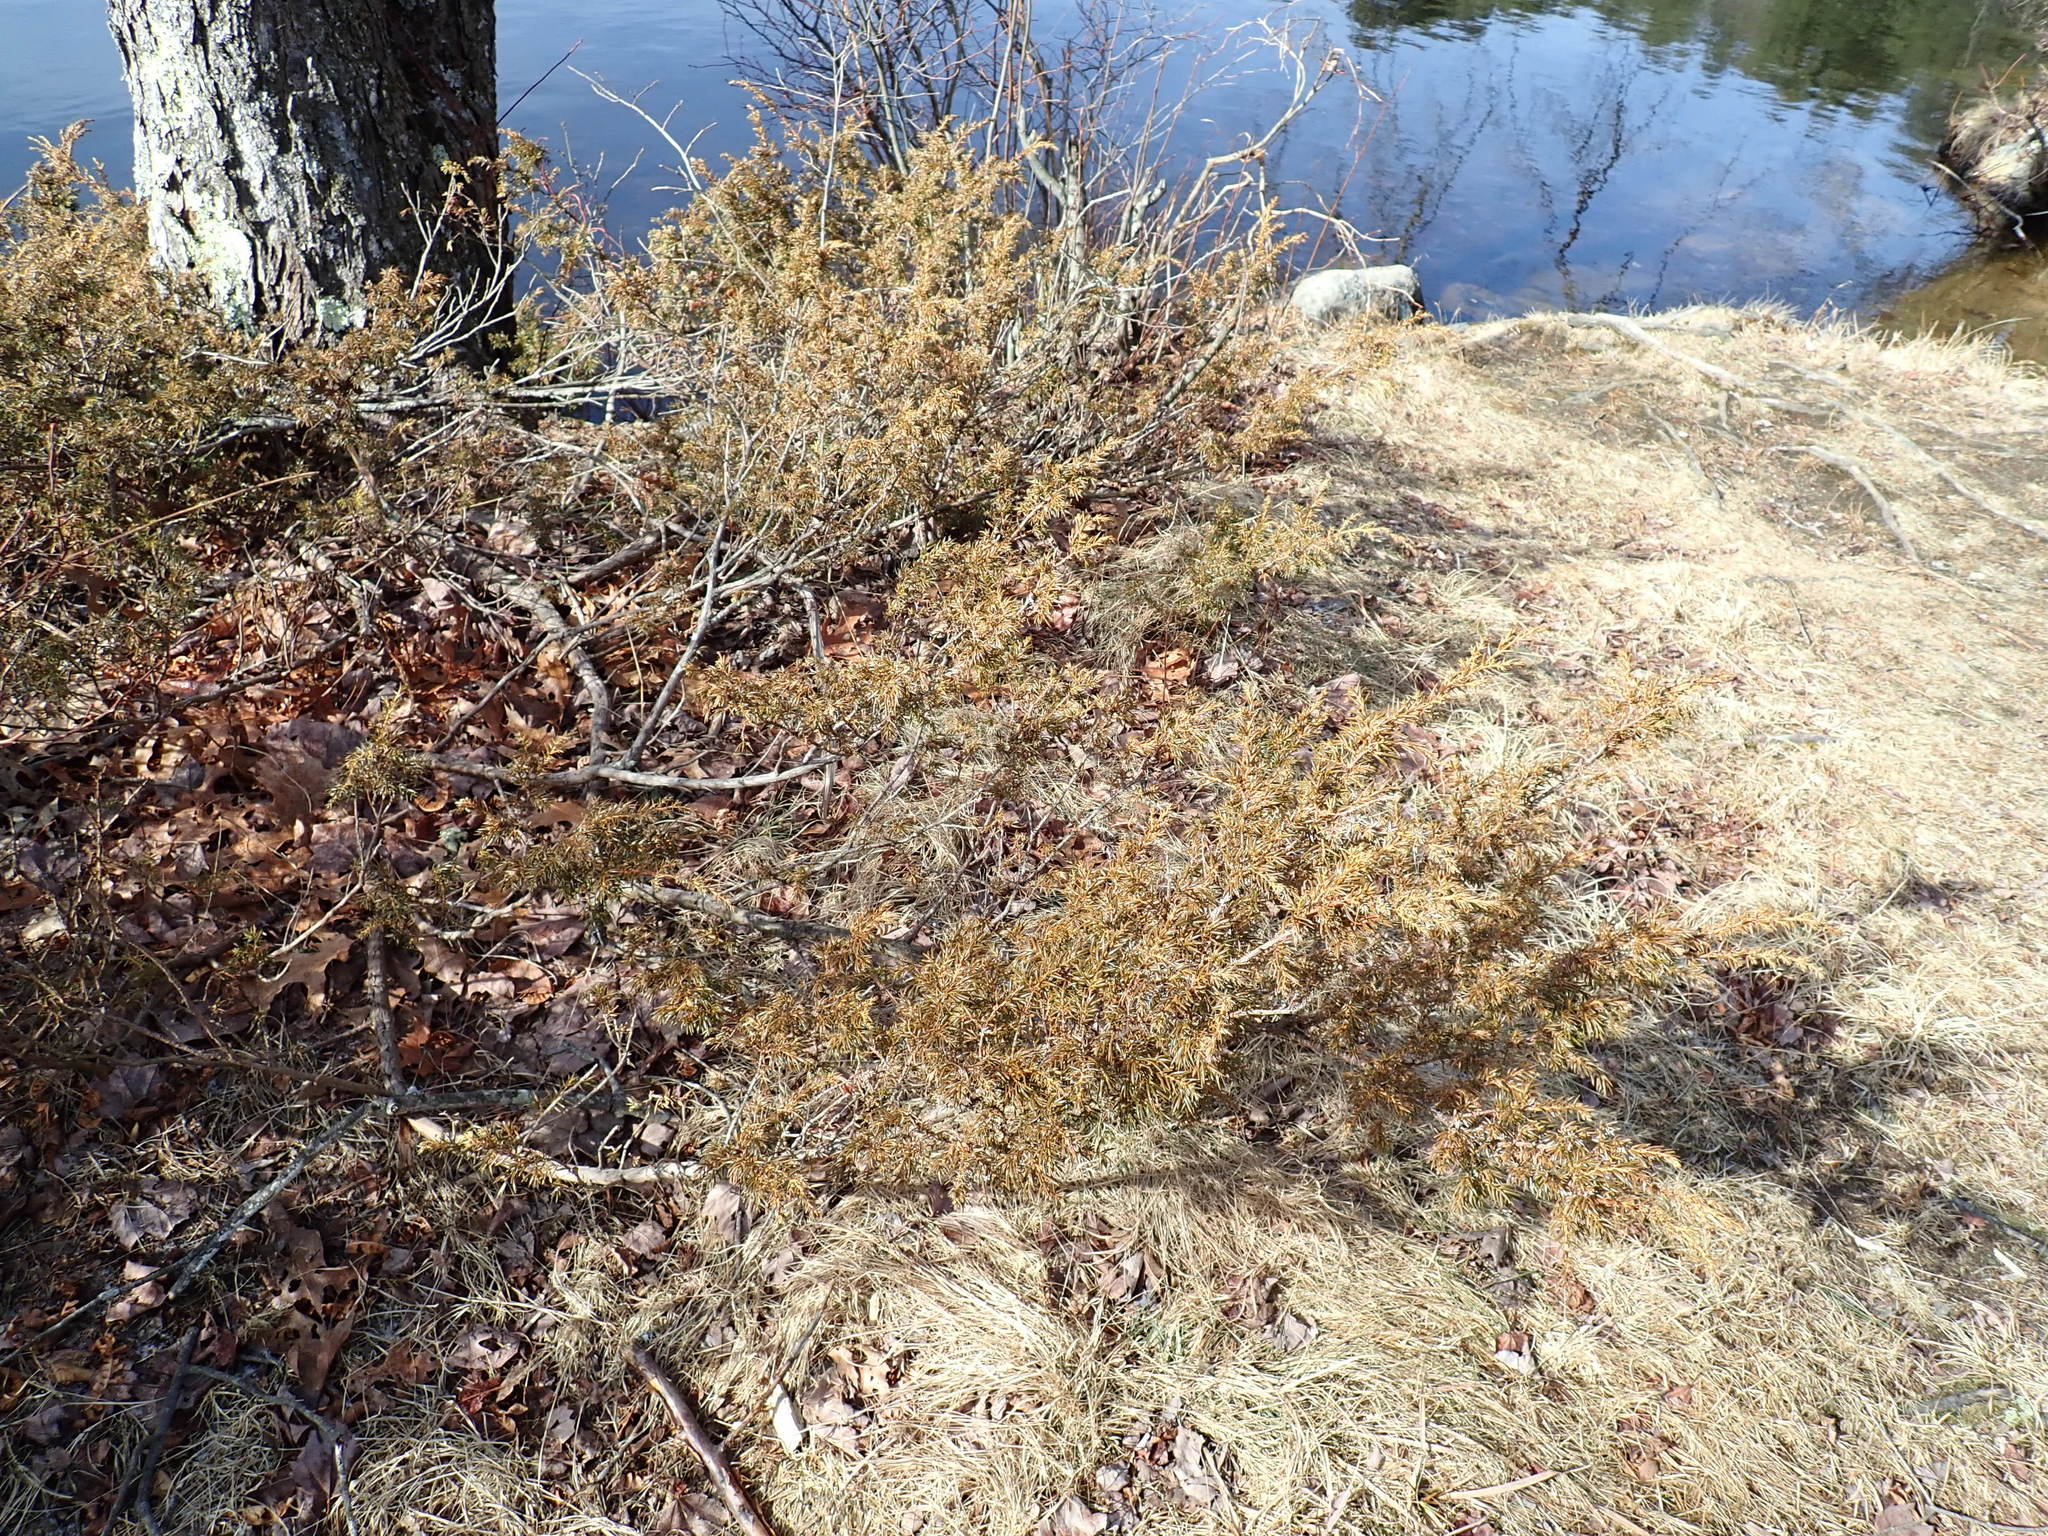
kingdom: Plantae
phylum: Tracheophyta
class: Pinopsida
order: Pinales
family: Cupressaceae
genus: Juniperus
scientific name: Juniperus communis
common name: Common juniper
